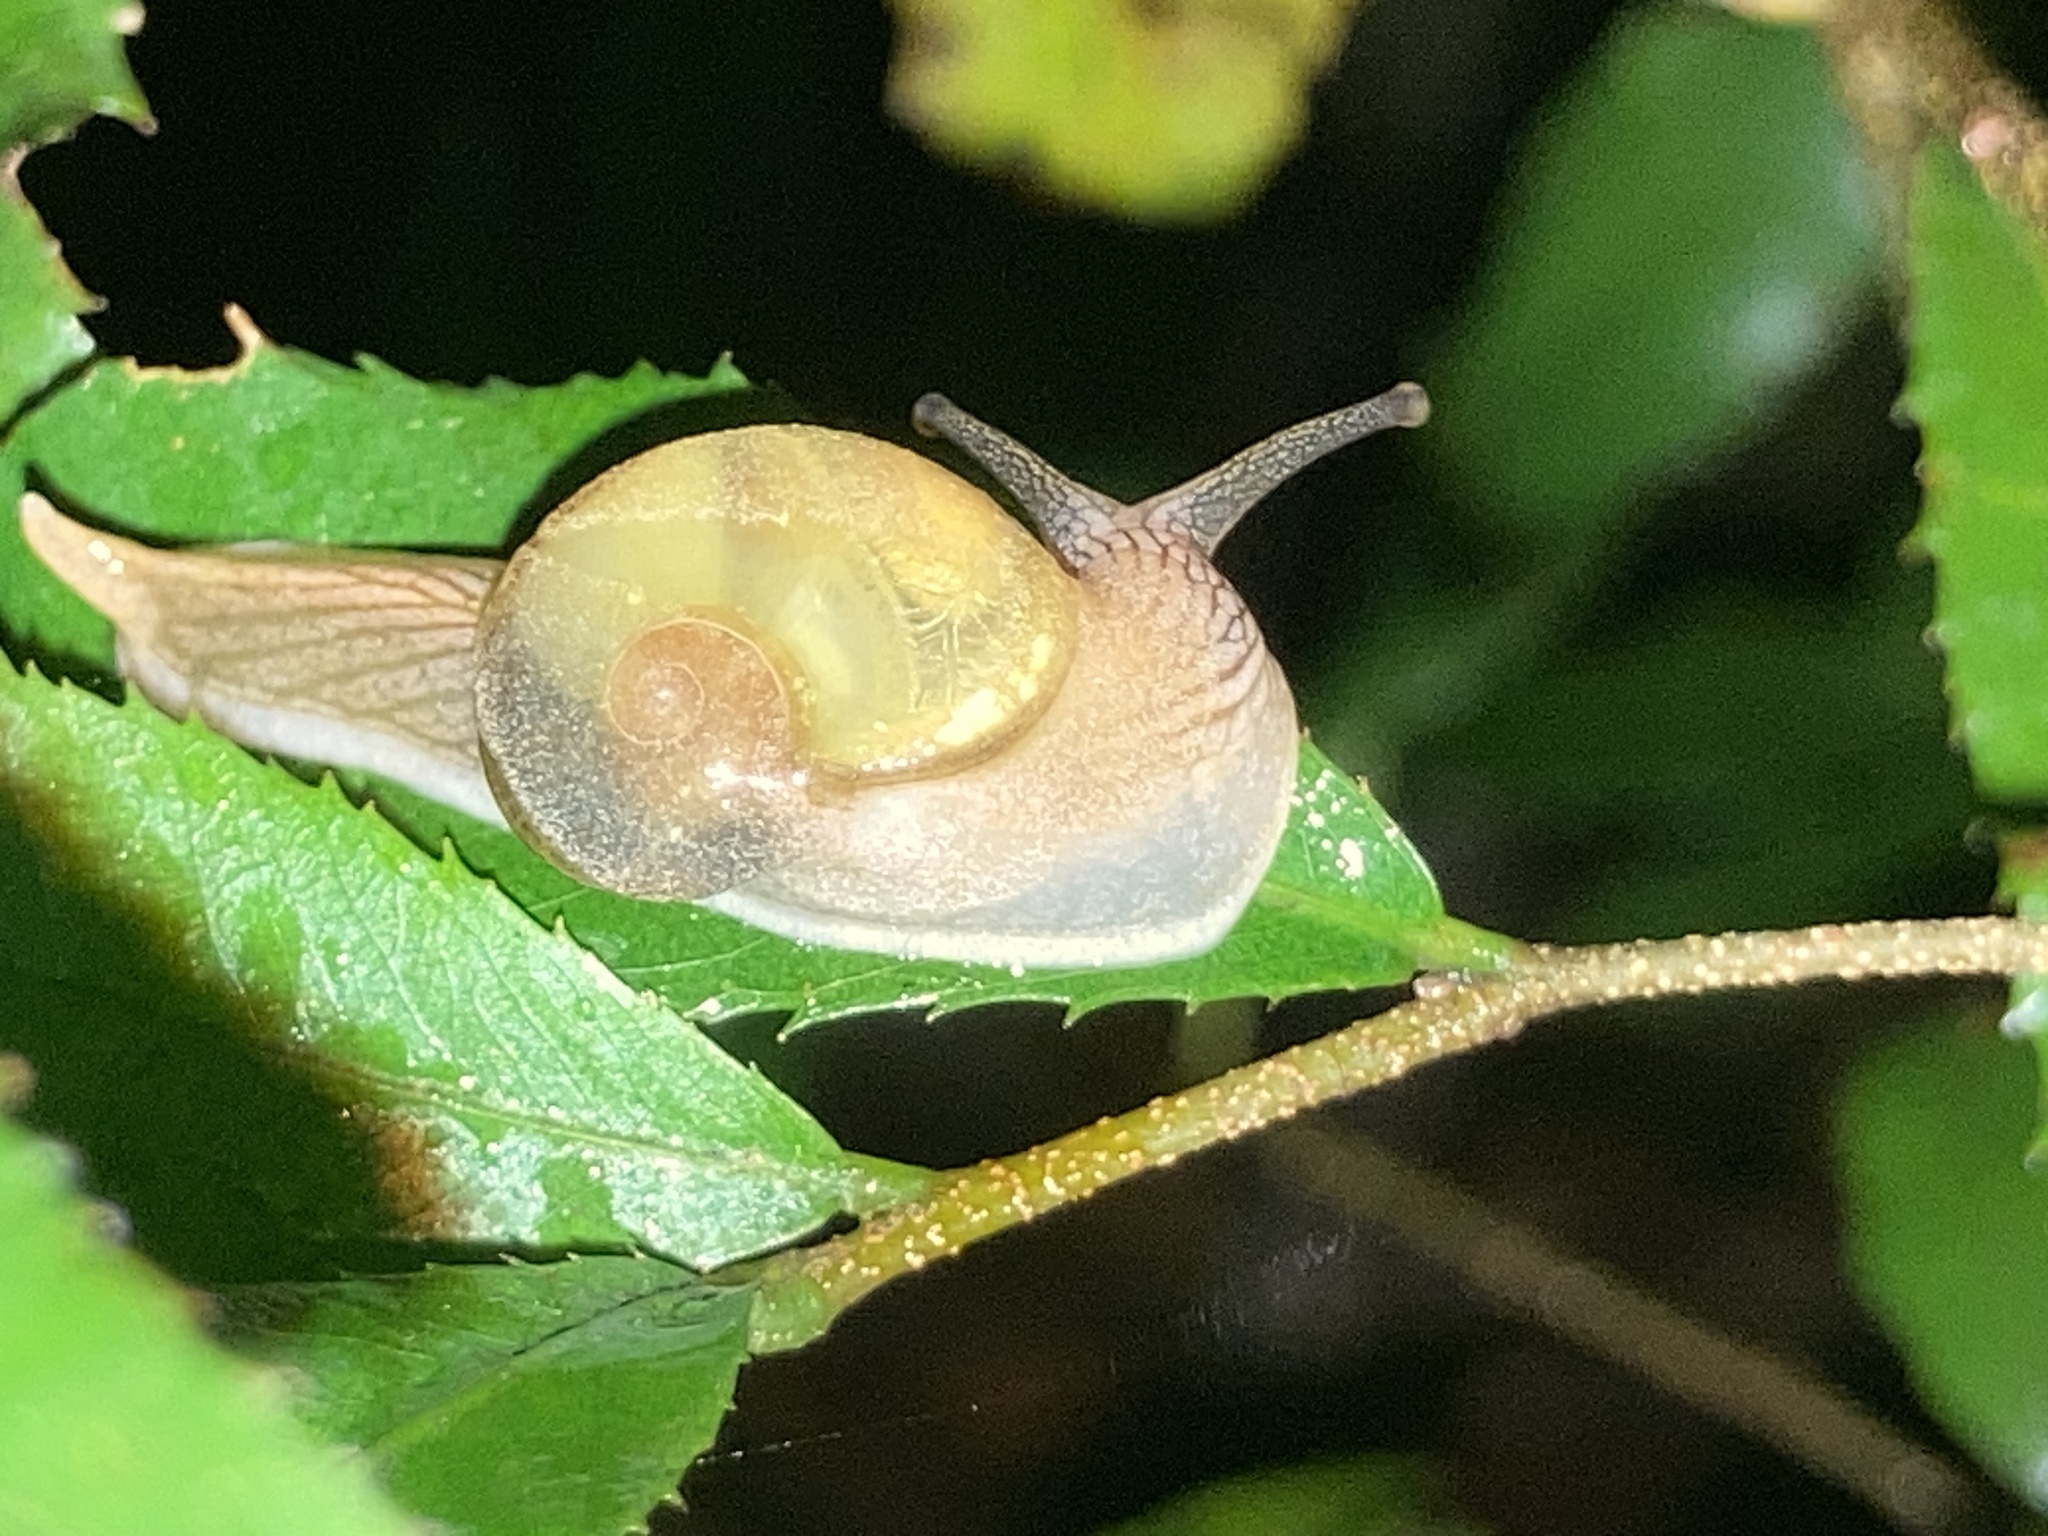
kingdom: Animalia
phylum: Mollusca
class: Gastropoda
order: Stylommatophora
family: Helicarionidae
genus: Helicarion
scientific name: Helicarion mastersi
